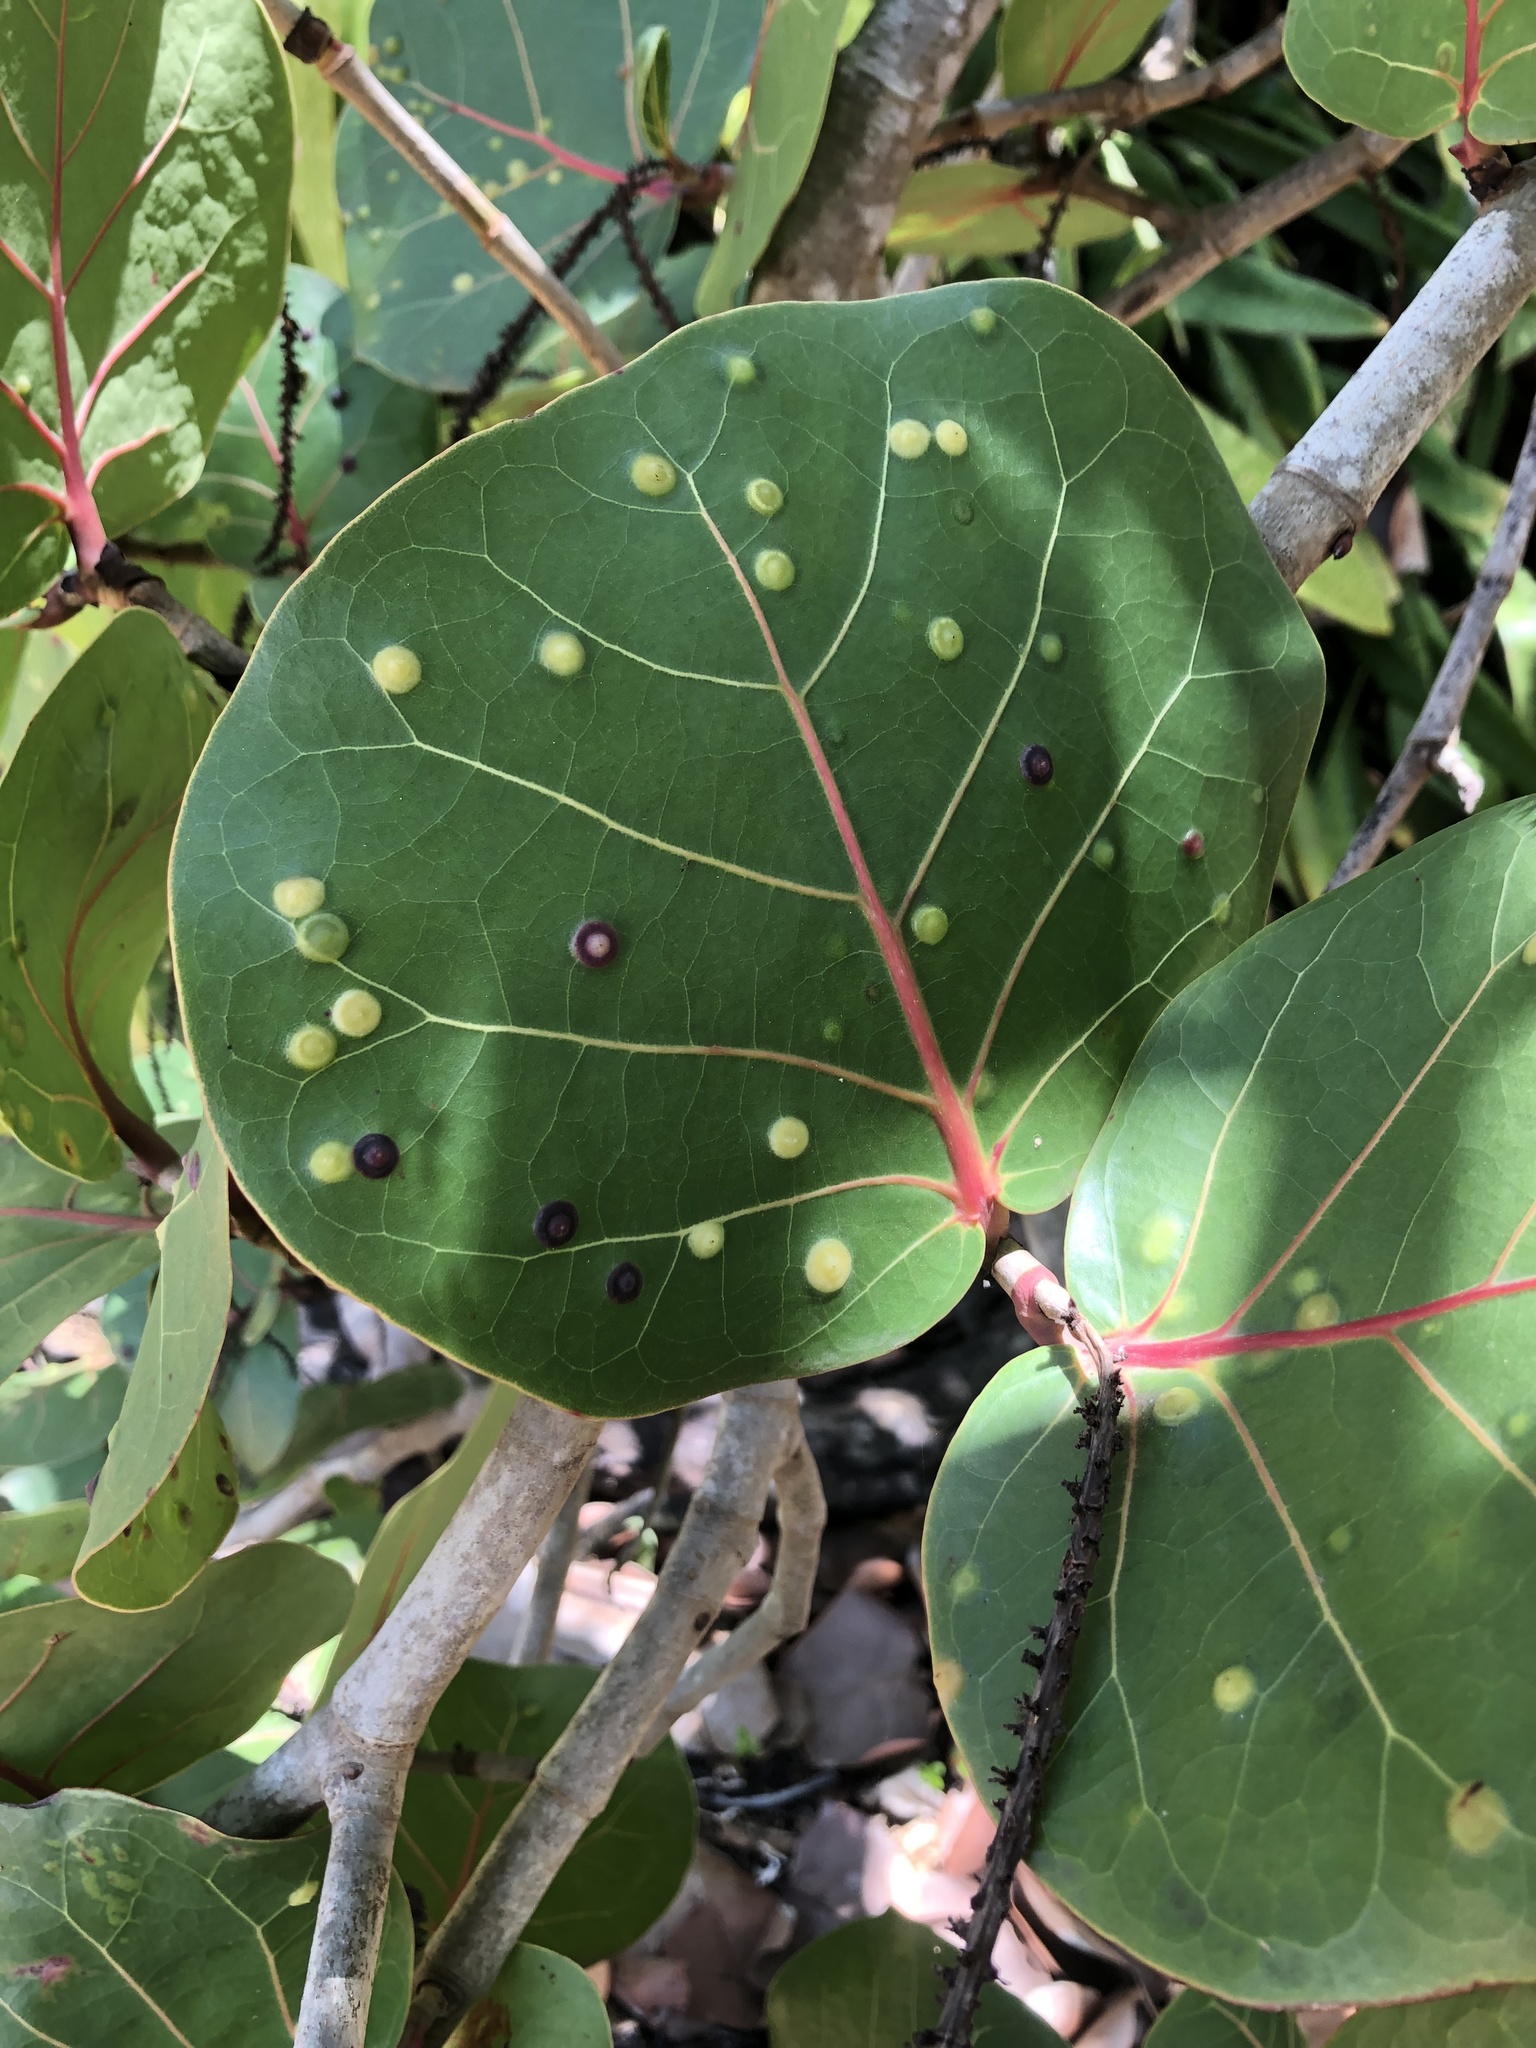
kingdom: Animalia
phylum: Arthropoda
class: Insecta
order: Diptera
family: Cecidomyiidae
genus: Ctenodactylomyia
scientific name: Ctenodactylomyia watsoni
